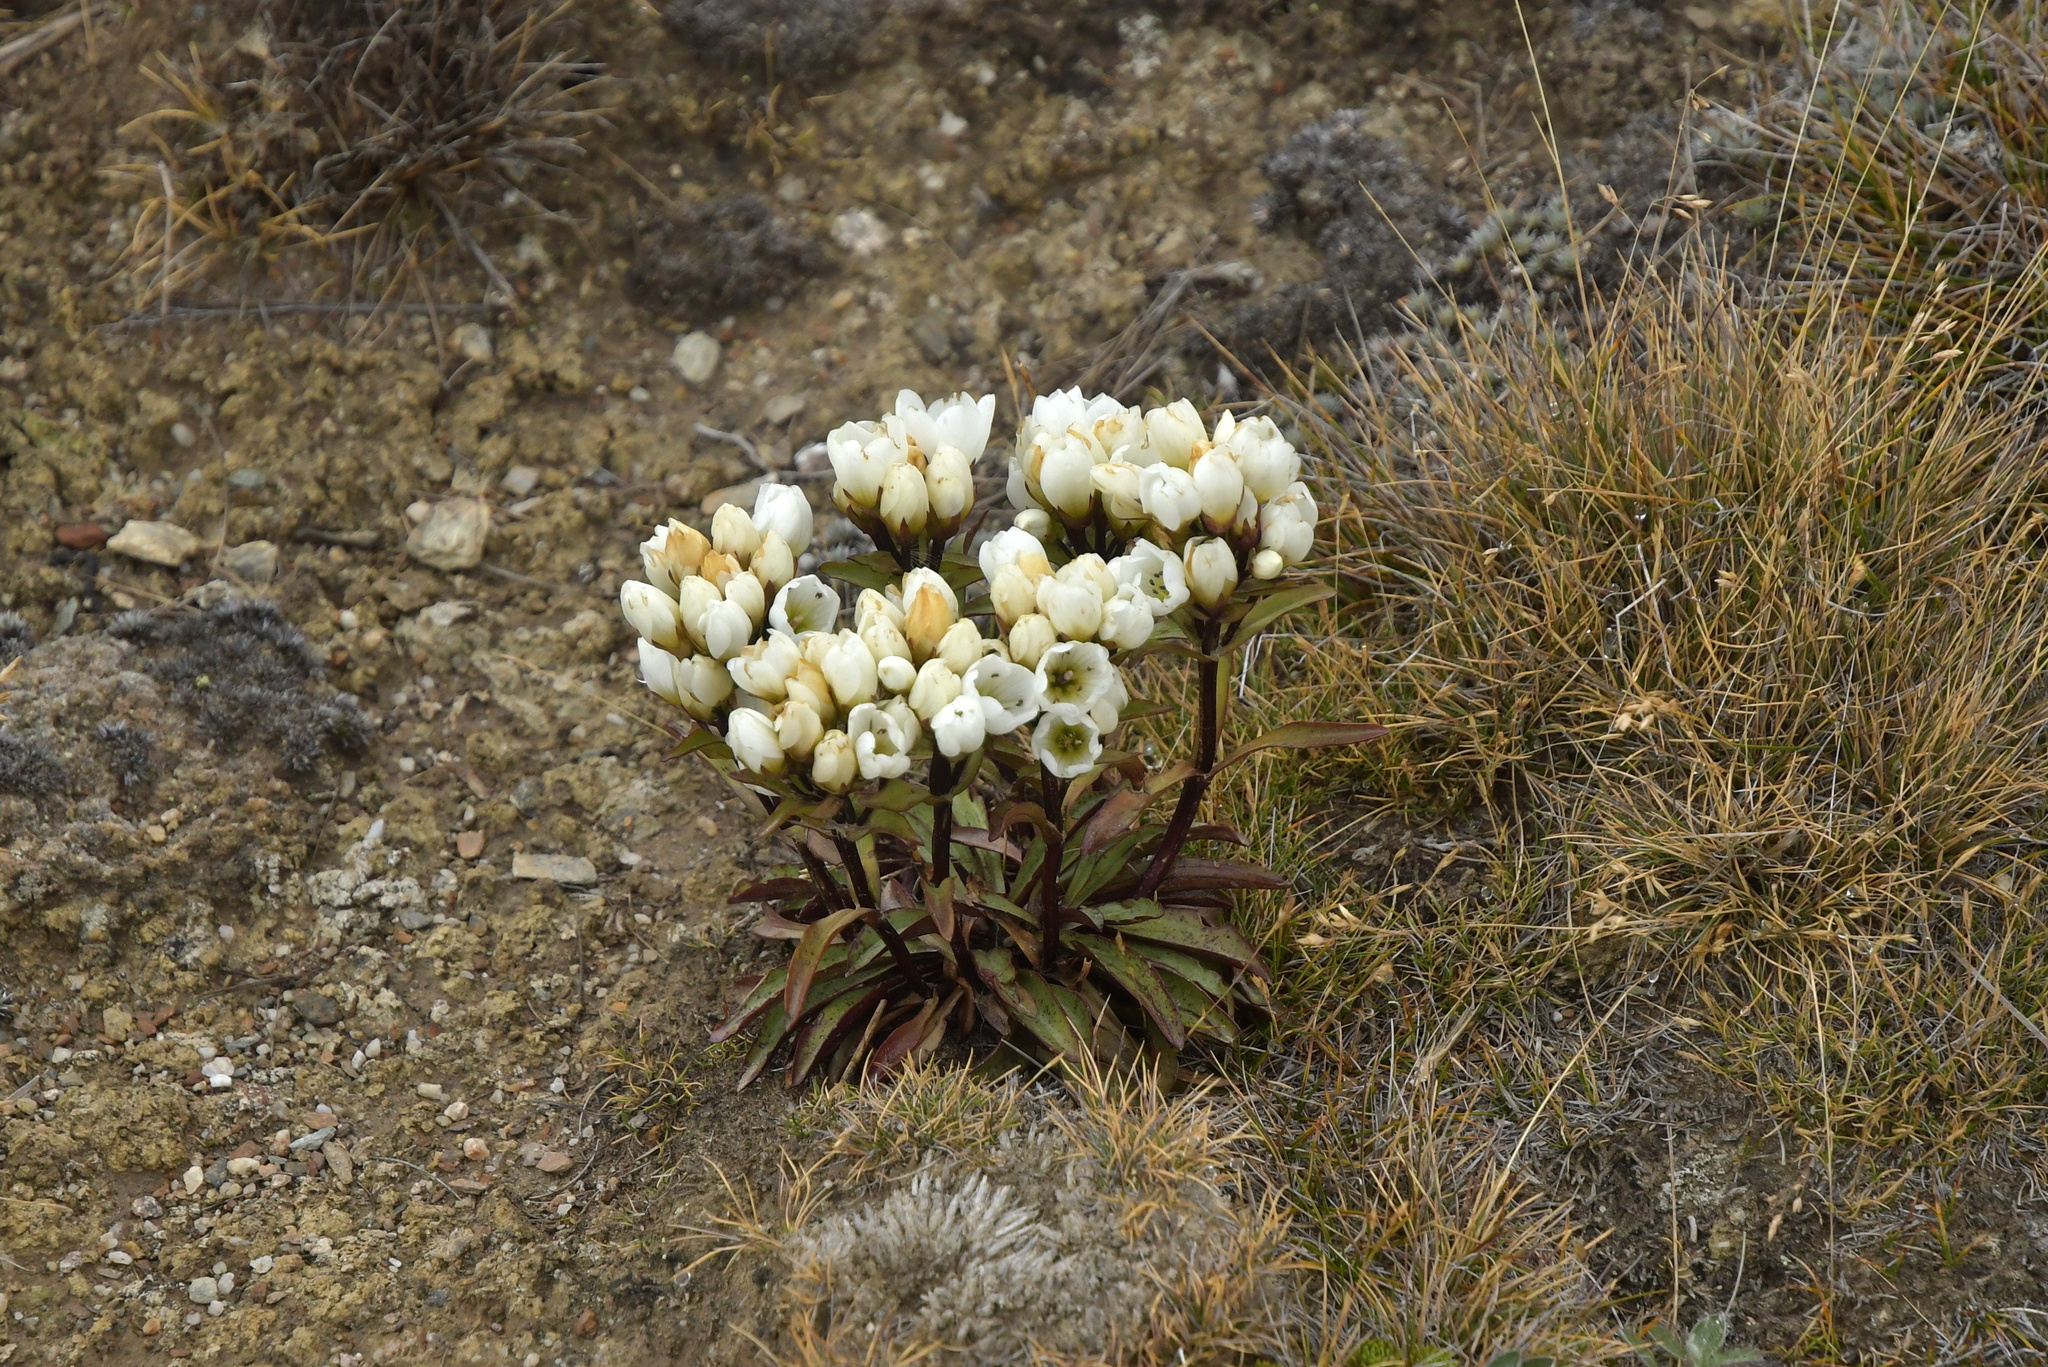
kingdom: Plantae
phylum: Tracheophyta
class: Magnoliopsida
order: Gentianales
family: Gentianaceae
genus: Gentianella
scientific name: Gentianella bellidifolia
